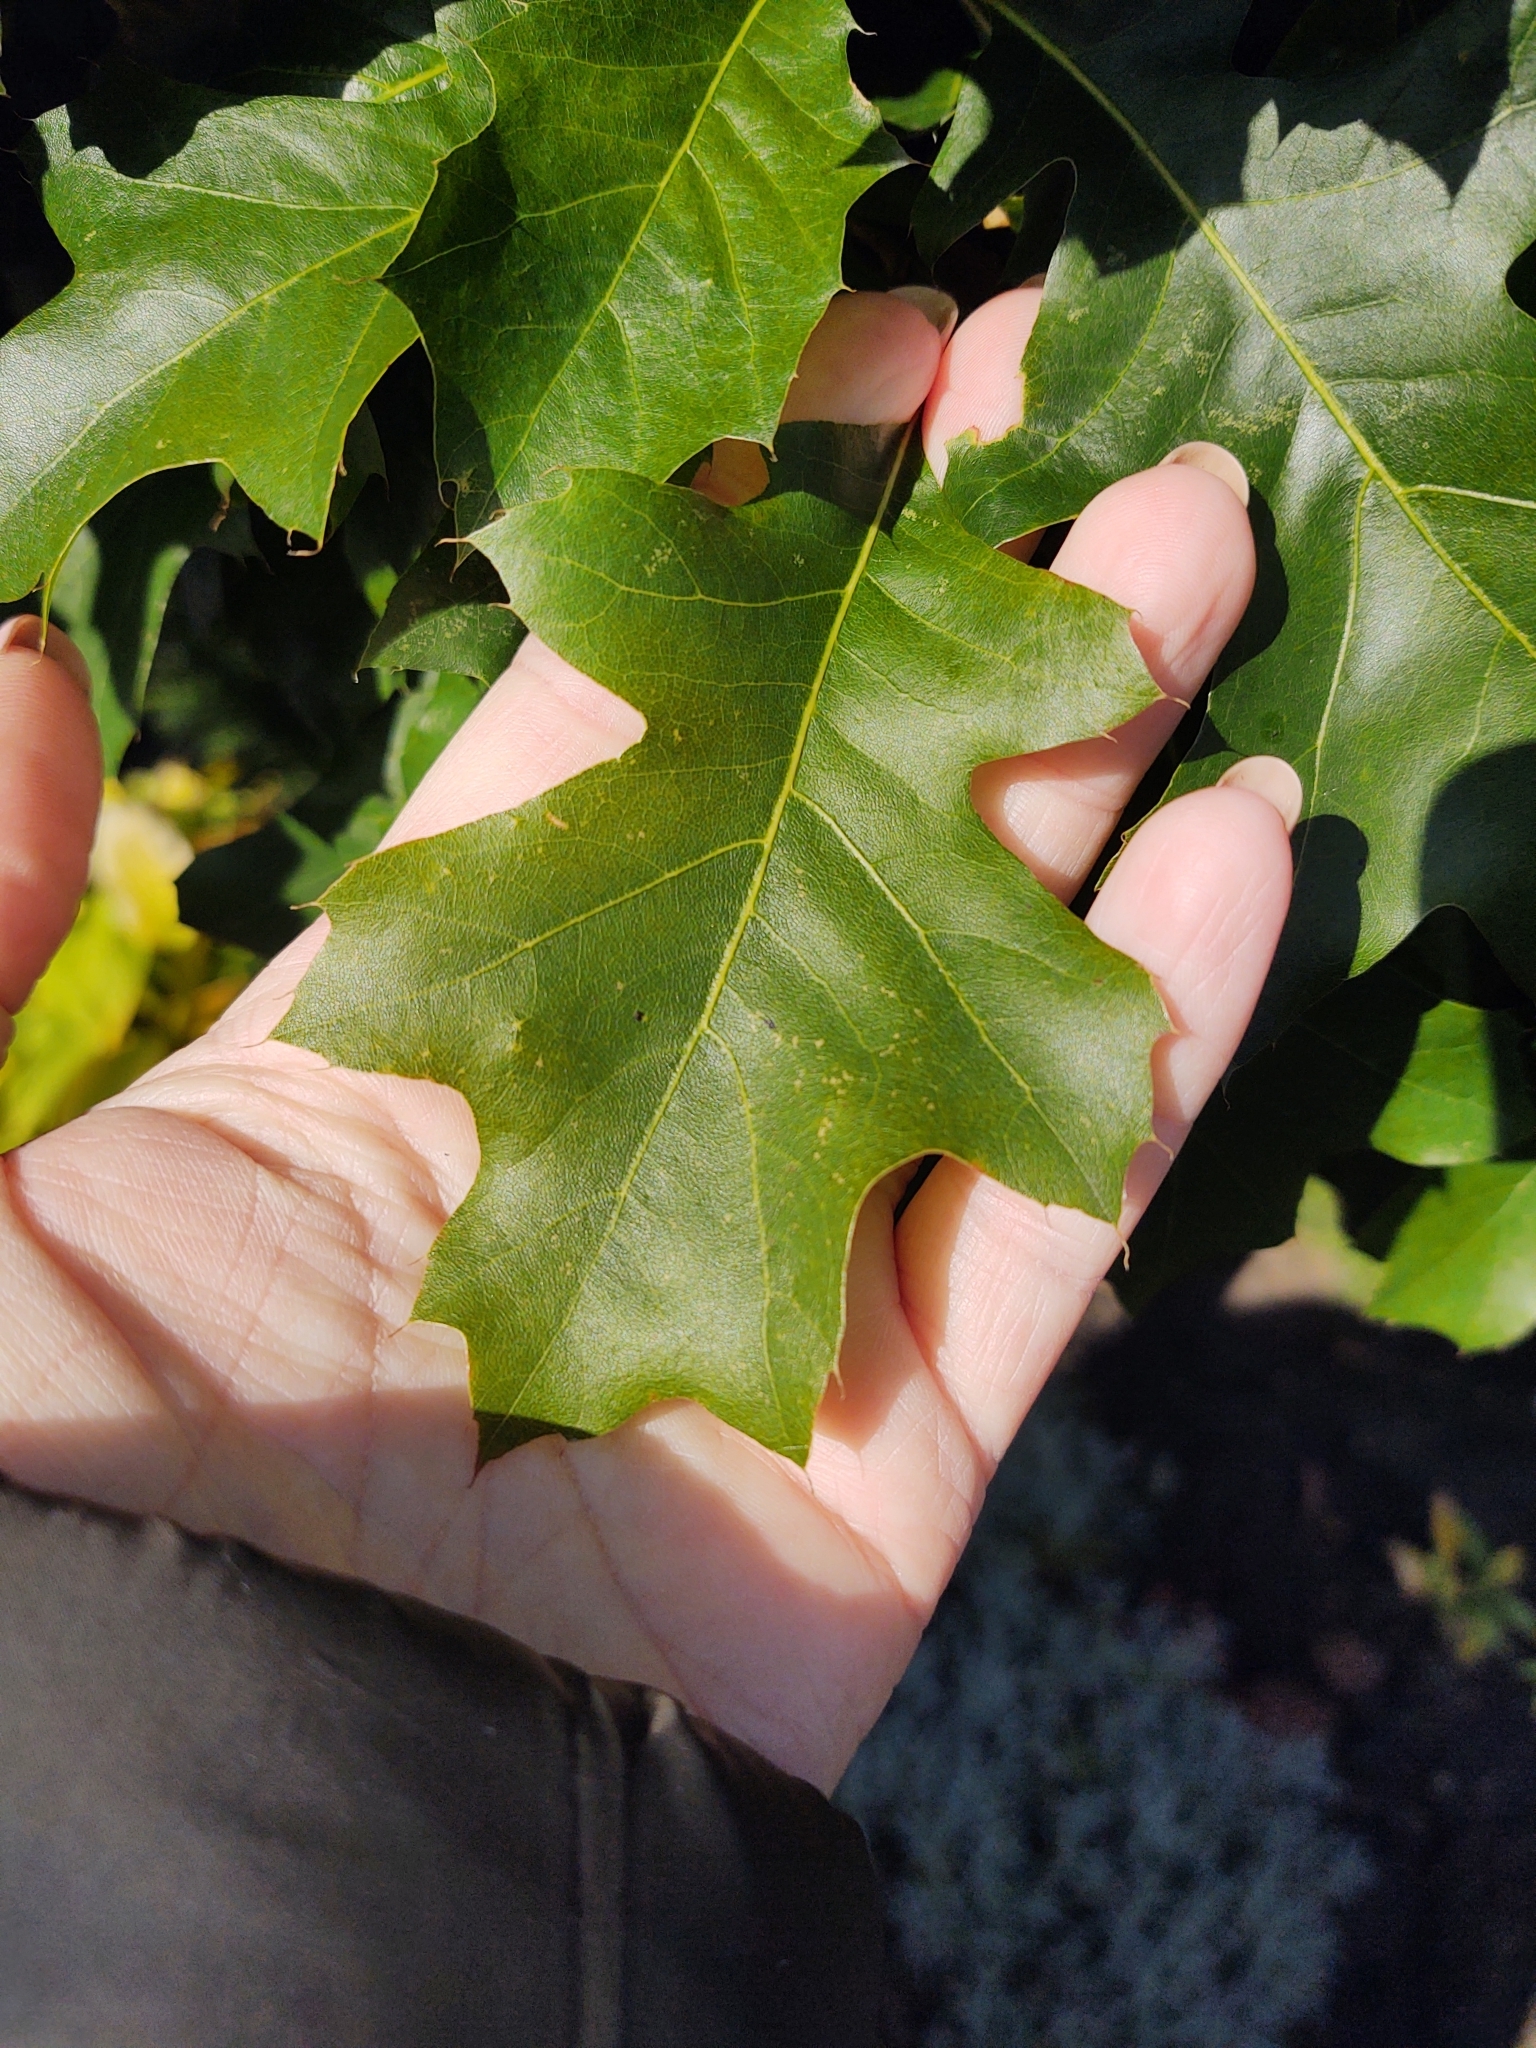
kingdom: Plantae
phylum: Tracheophyta
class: Magnoliopsida
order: Fagales
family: Fagaceae
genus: Quercus
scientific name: Quercus rubra
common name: Red oak
